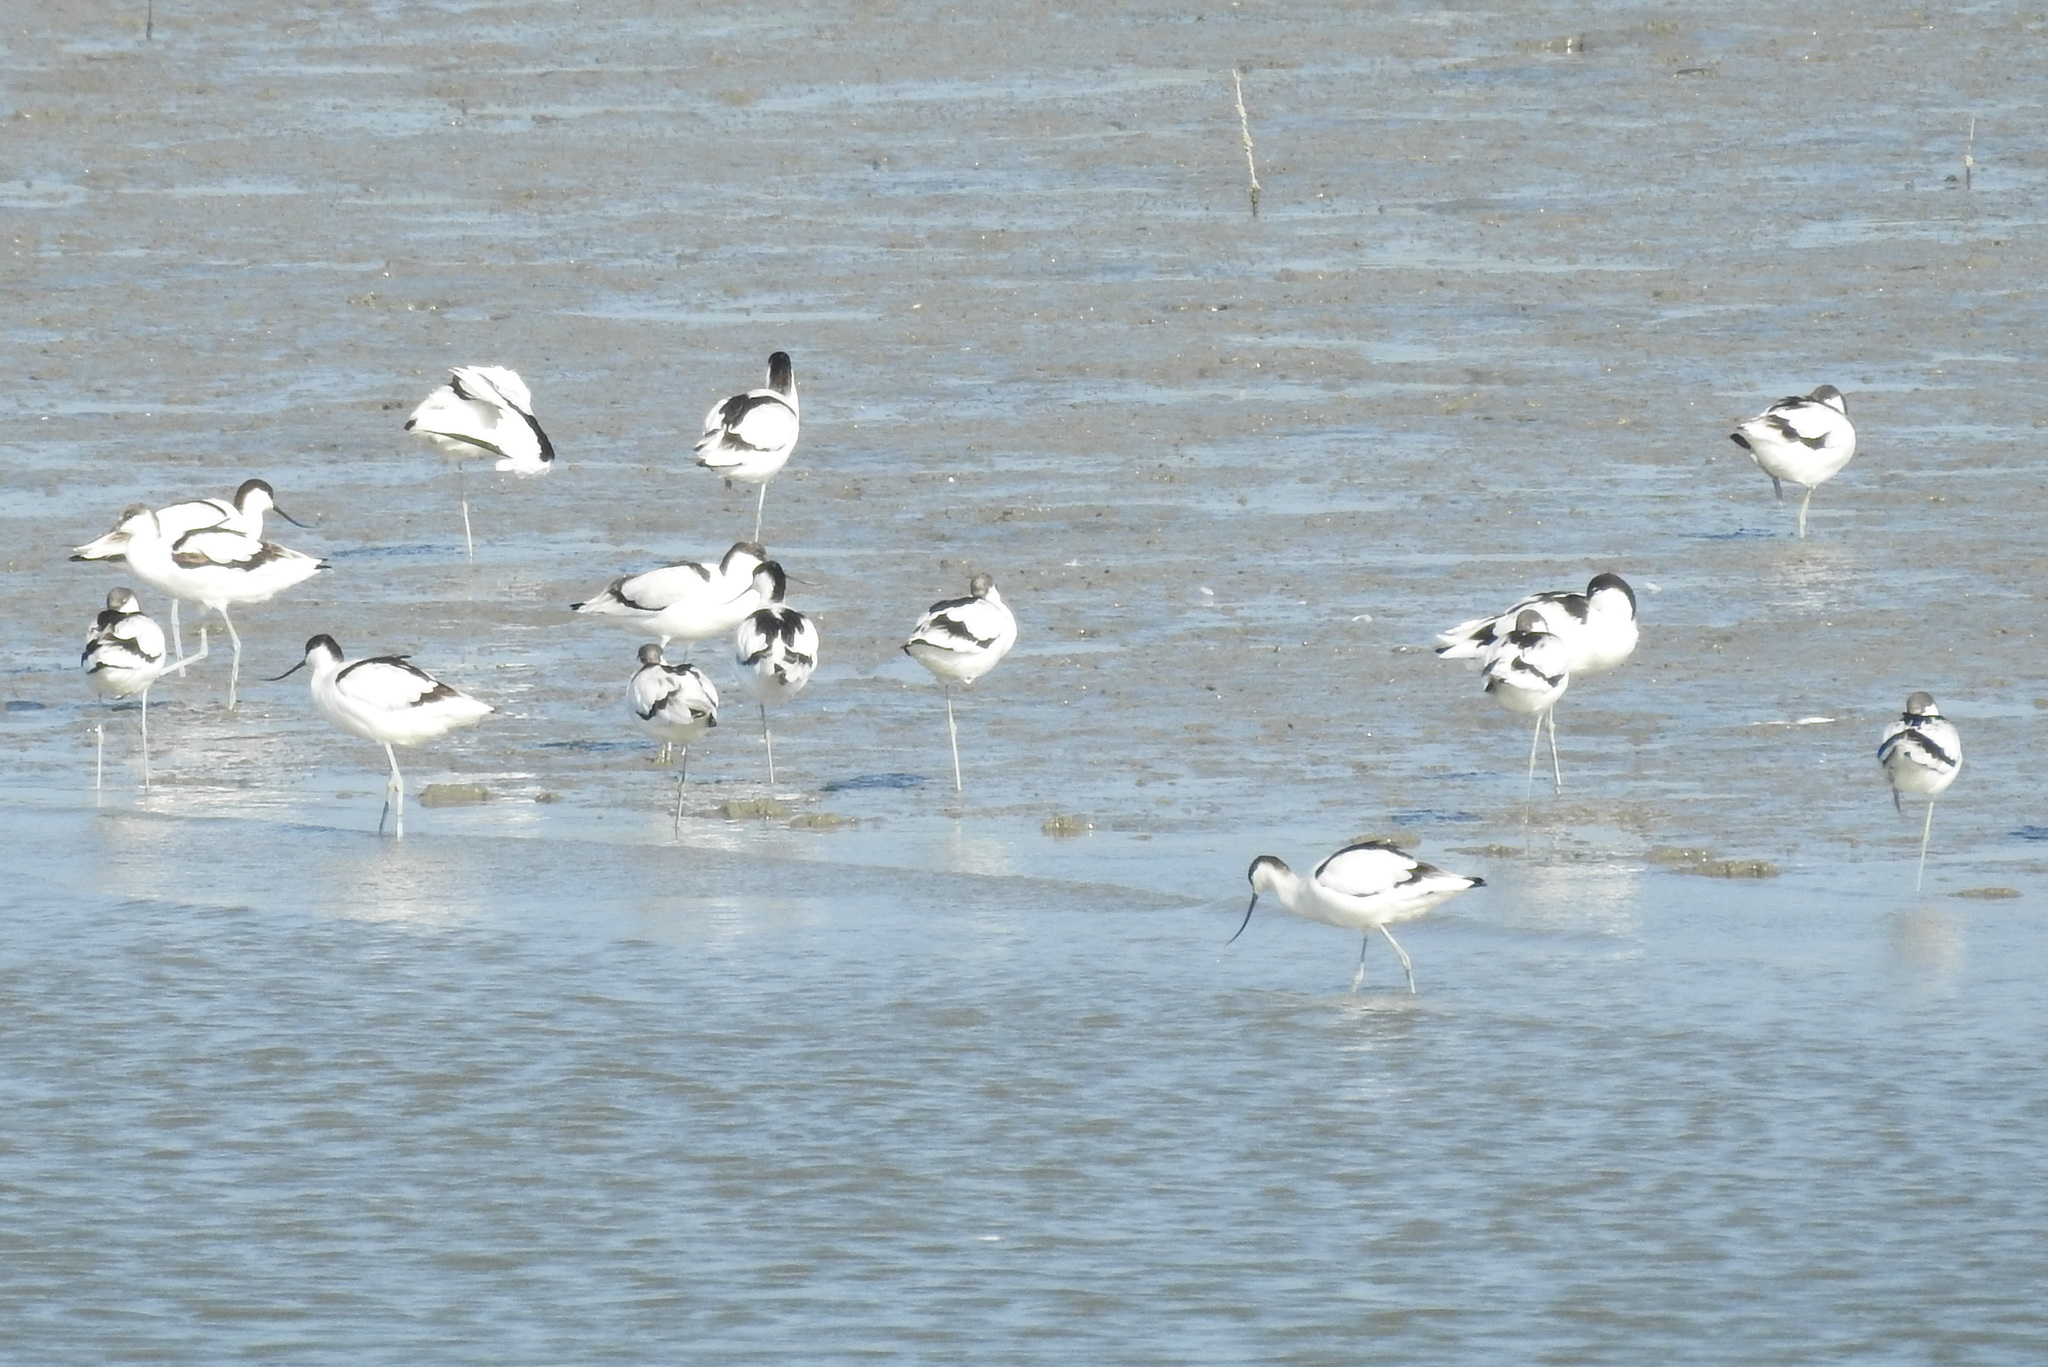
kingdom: Animalia
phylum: Chordata
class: Aves
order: Charadriiformes
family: Recurvirostridae
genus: Recurvirostra
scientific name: Recurvirostra avosetta
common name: Pied avocet
